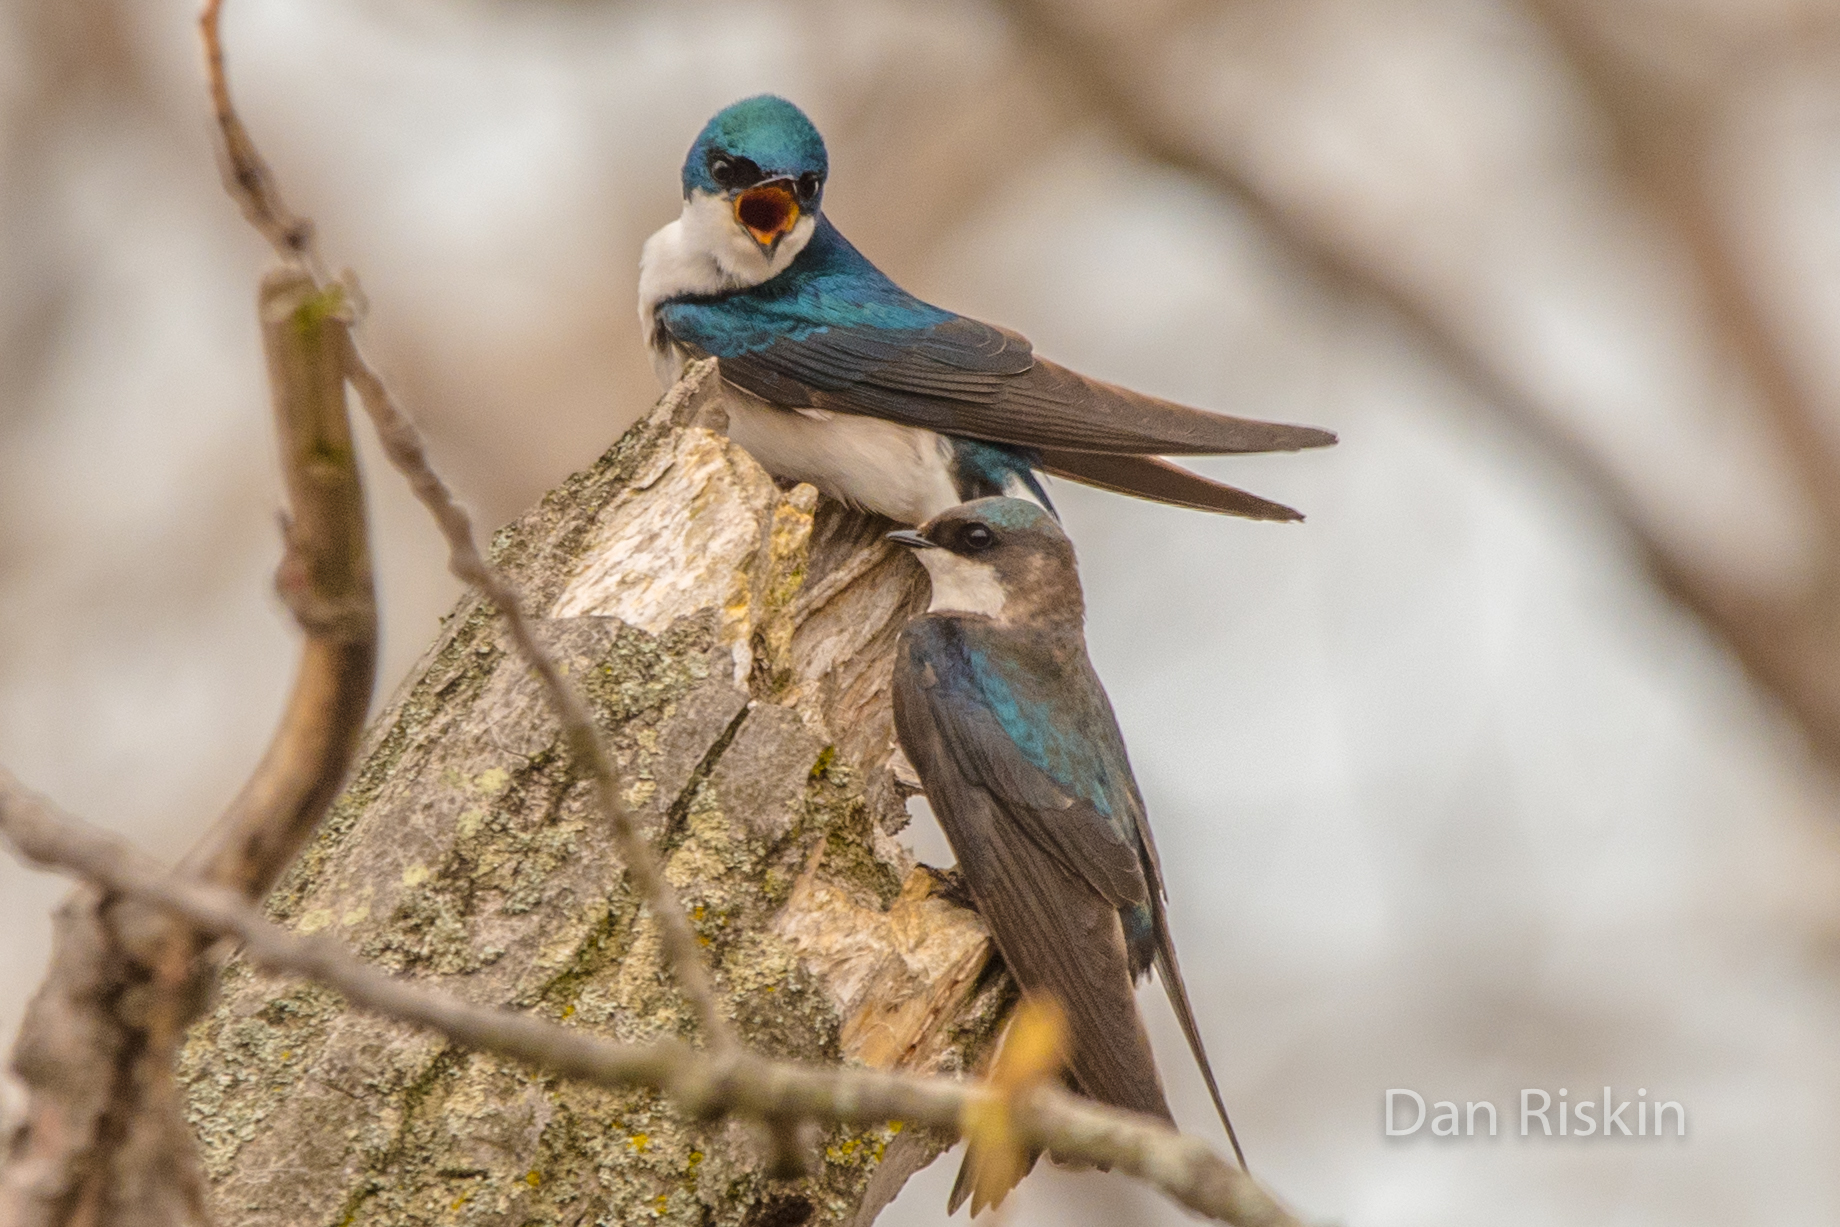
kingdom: Animalia
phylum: Chordata
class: Aves
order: Passeriformes
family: Hirundinidae
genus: Tachycineta
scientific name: Tachycineta bicolor
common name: Tree swallow
